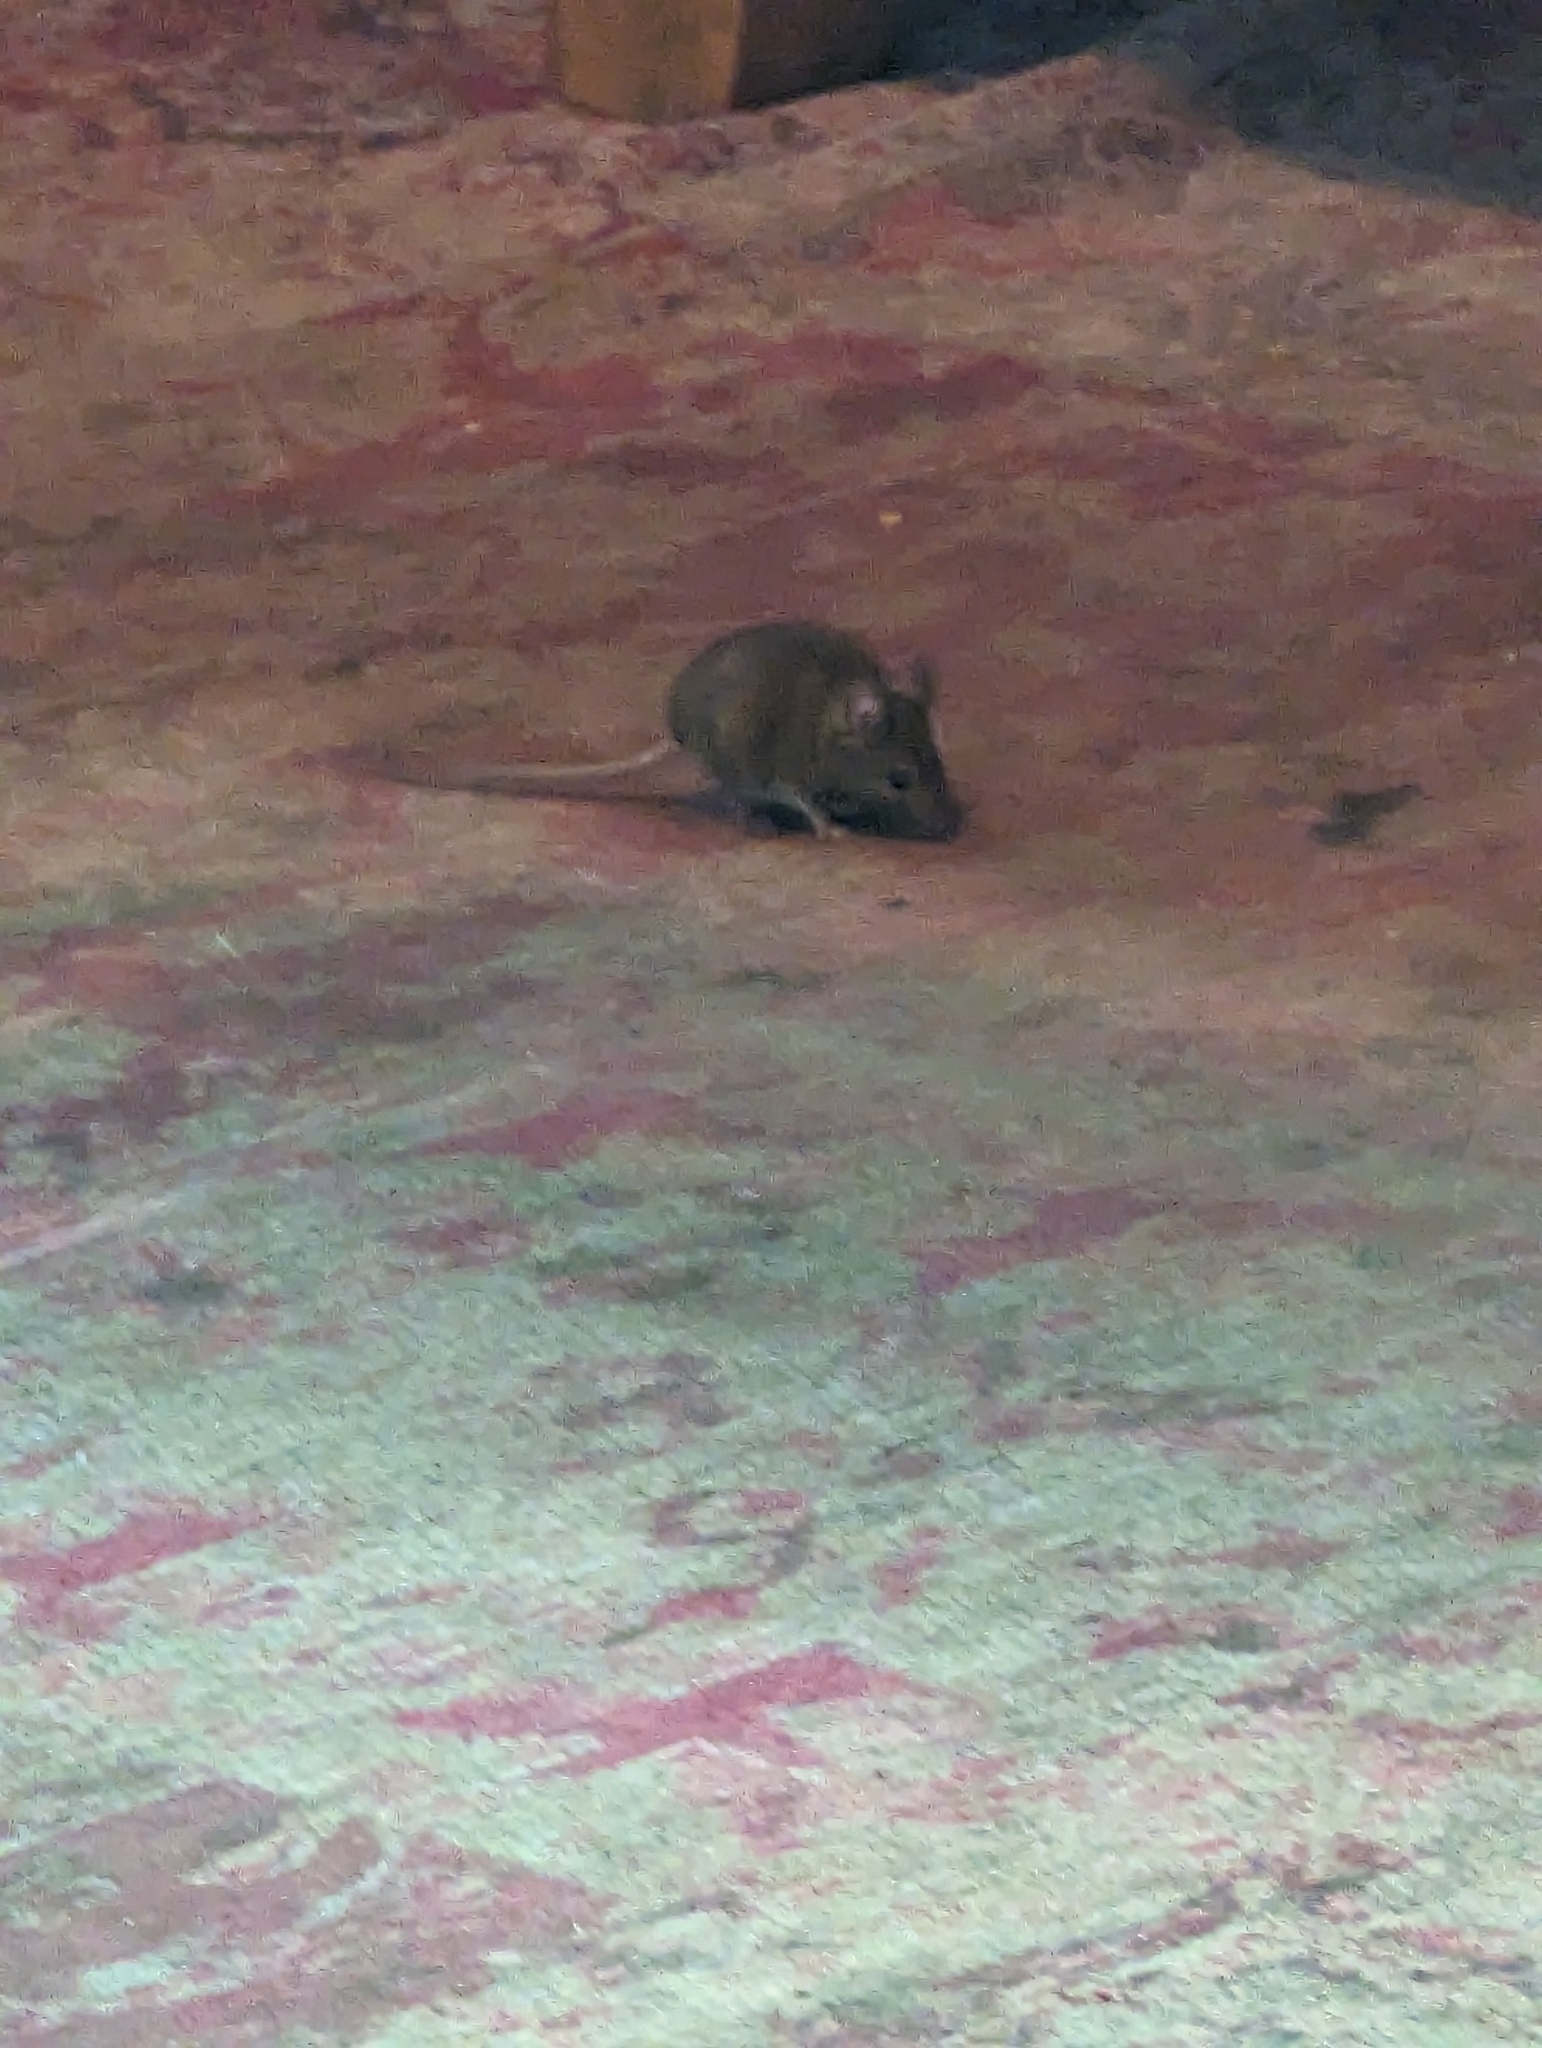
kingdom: Animalia
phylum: Chordata
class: Mammalia
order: Rodentia
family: Muridae
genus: Mus
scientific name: Mus musculus
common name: House mouse
